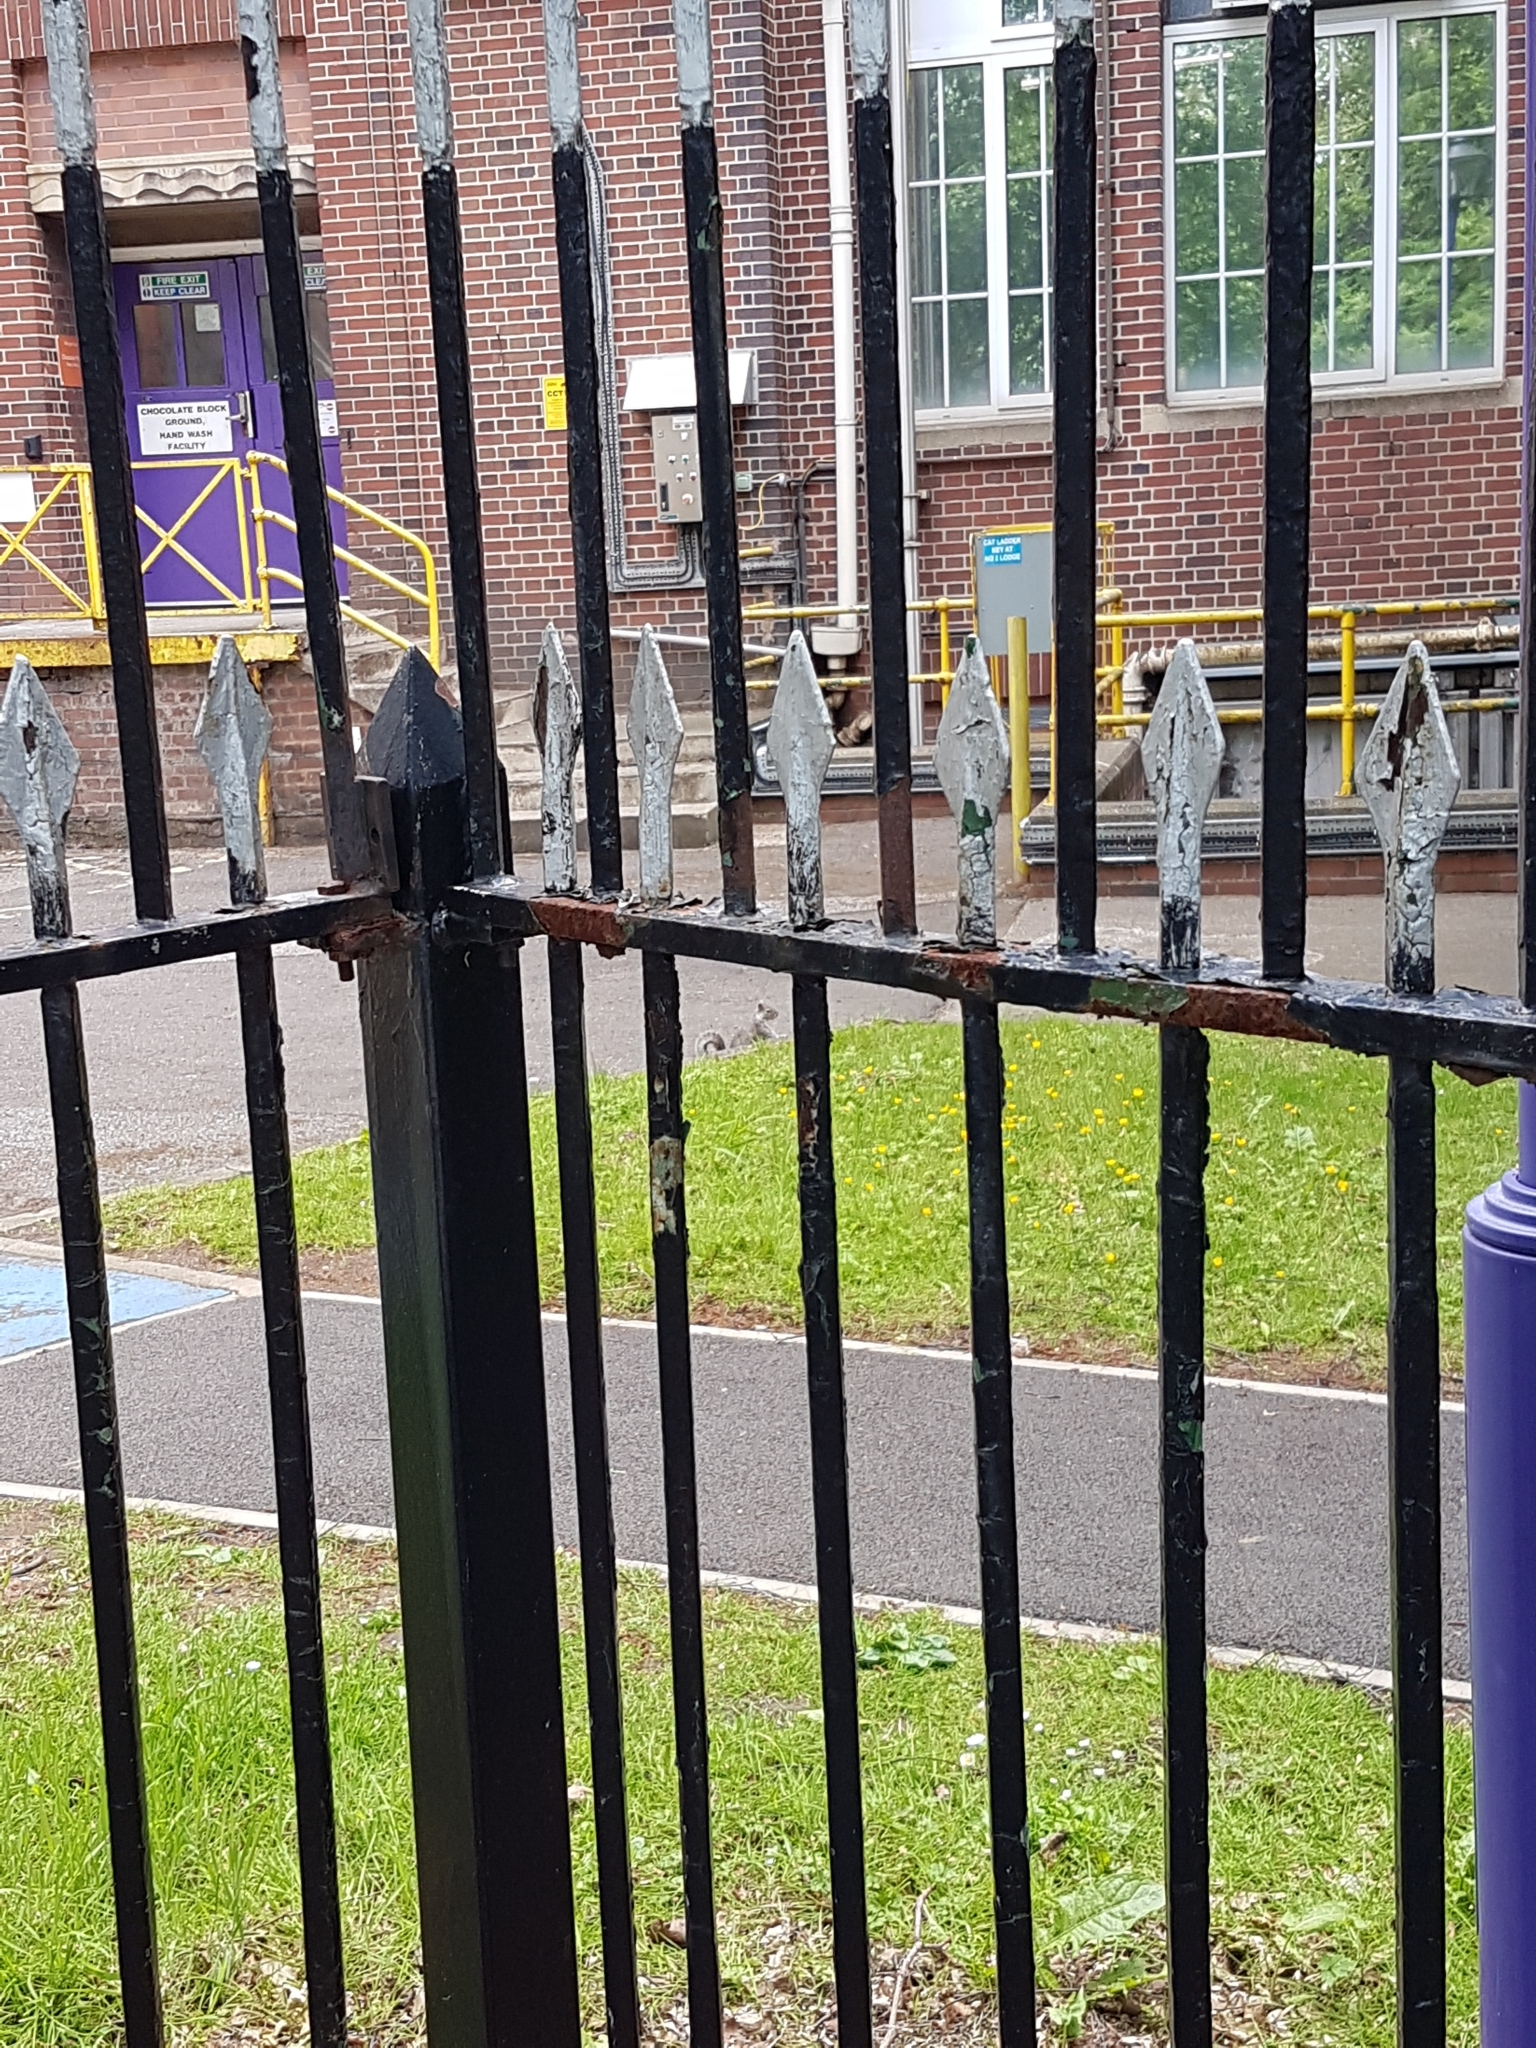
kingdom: Animalia
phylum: Chordata
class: Mammalia
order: Rodentia
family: Sciuridae
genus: Sciurus
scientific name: Sciurus carolinensis
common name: Eastern gray squirrel
